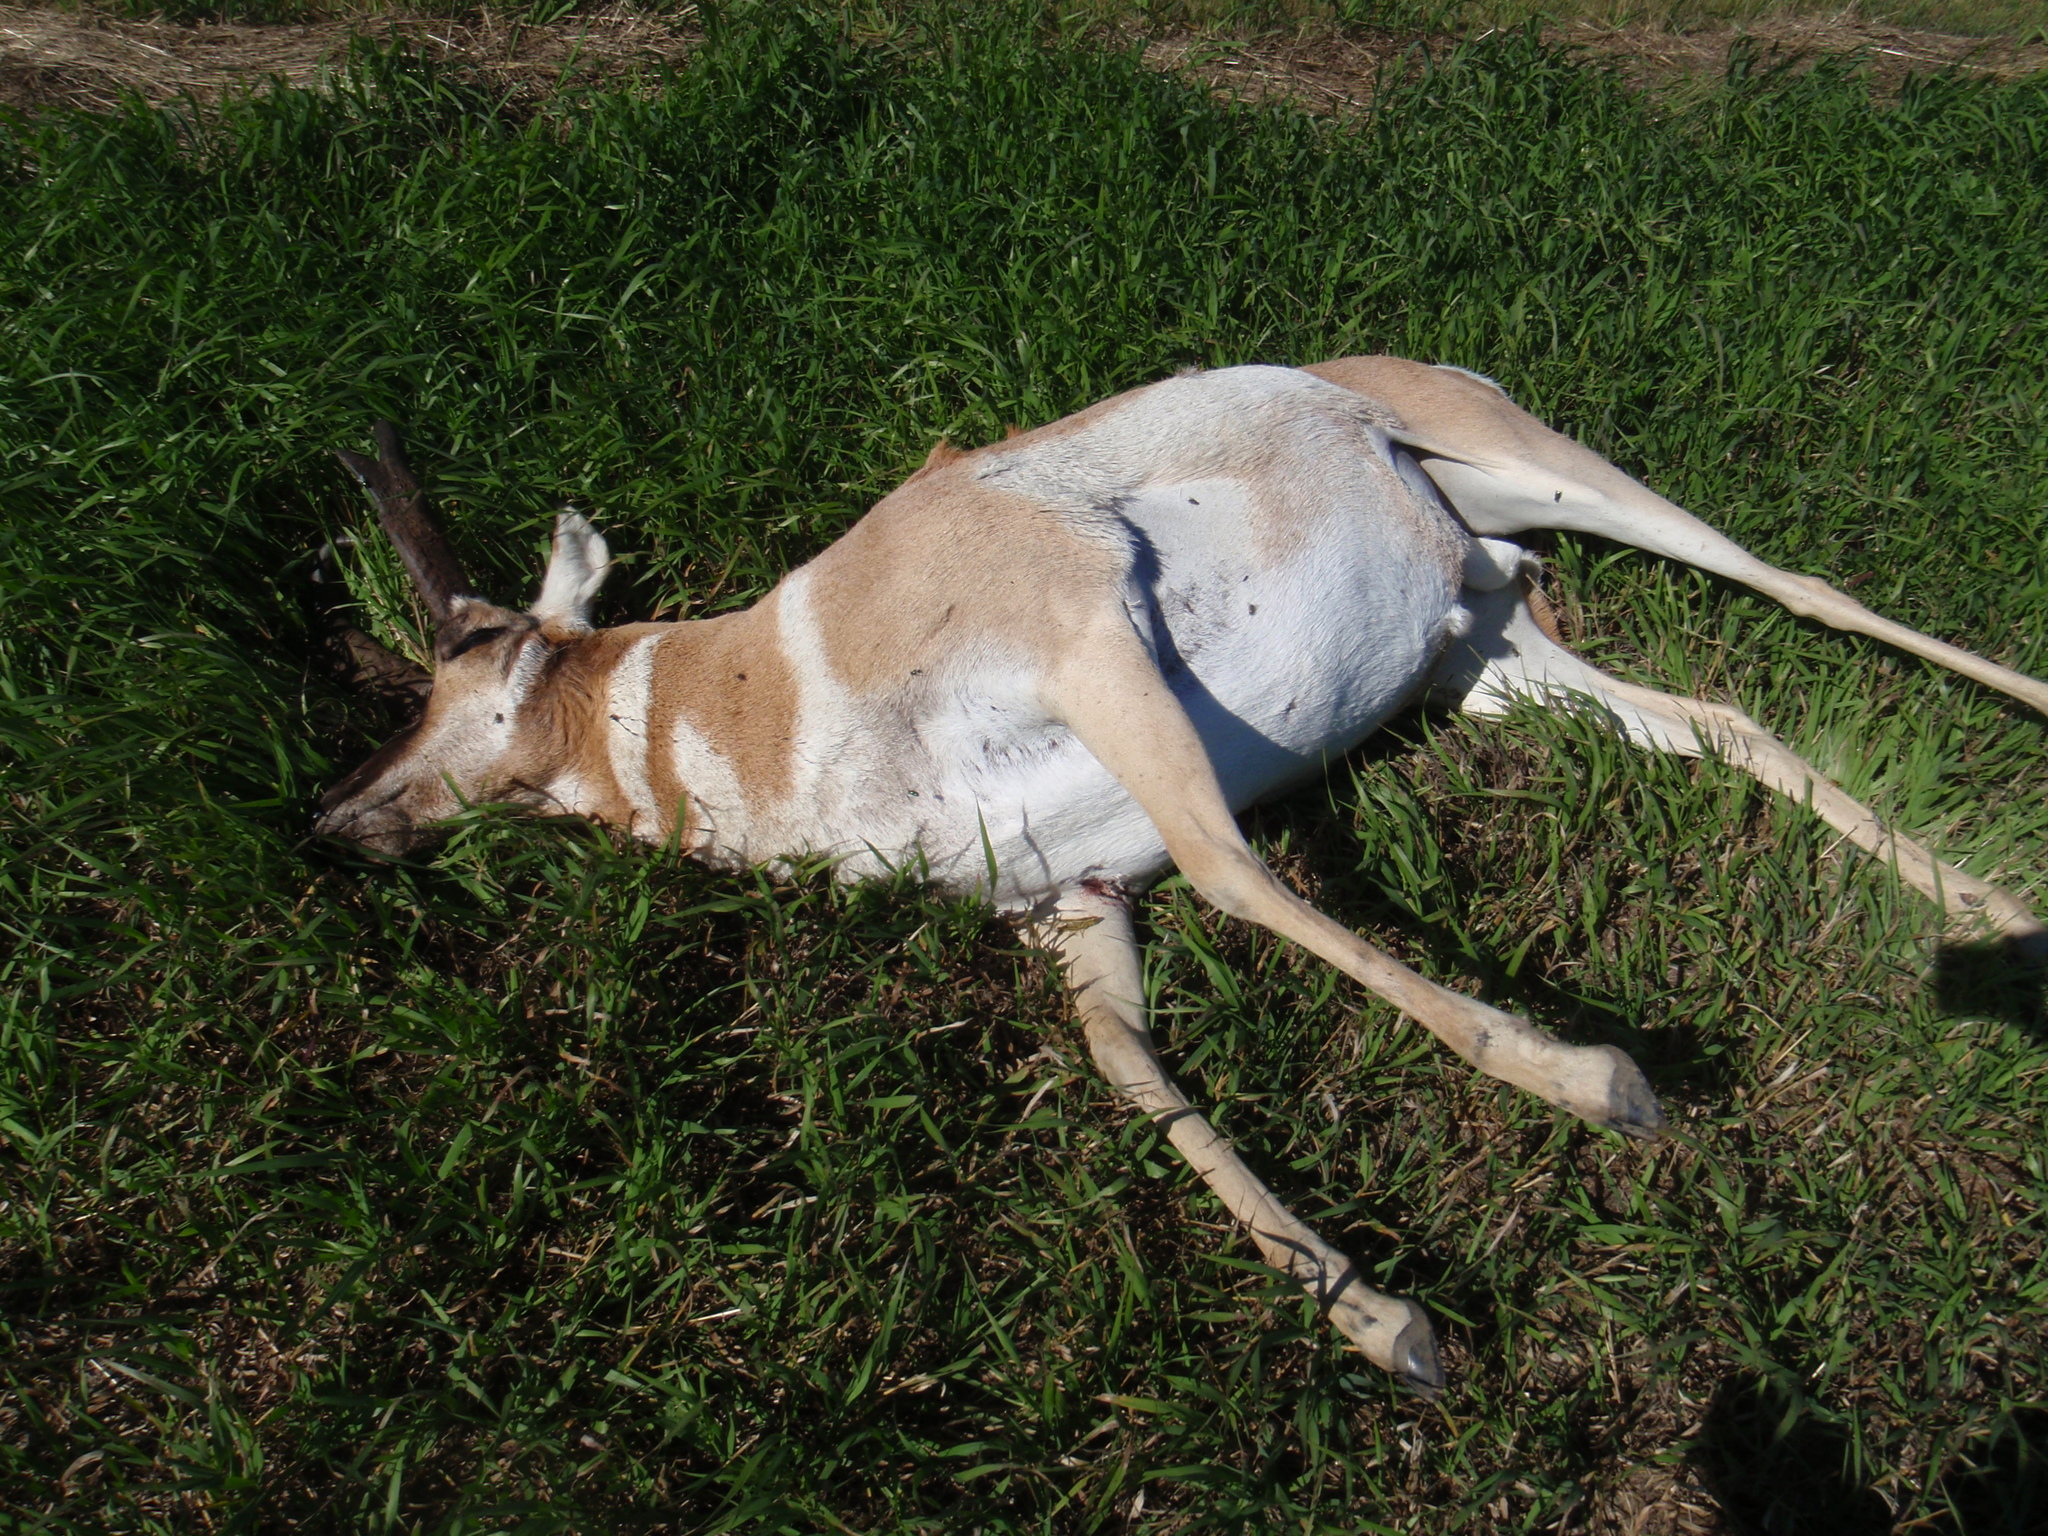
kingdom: Animalia
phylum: Chordata
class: Mammalia
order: Artiodactyla
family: Antilocapridae
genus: Antilocapra
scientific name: Antilocapra americana
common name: Pronghorn
